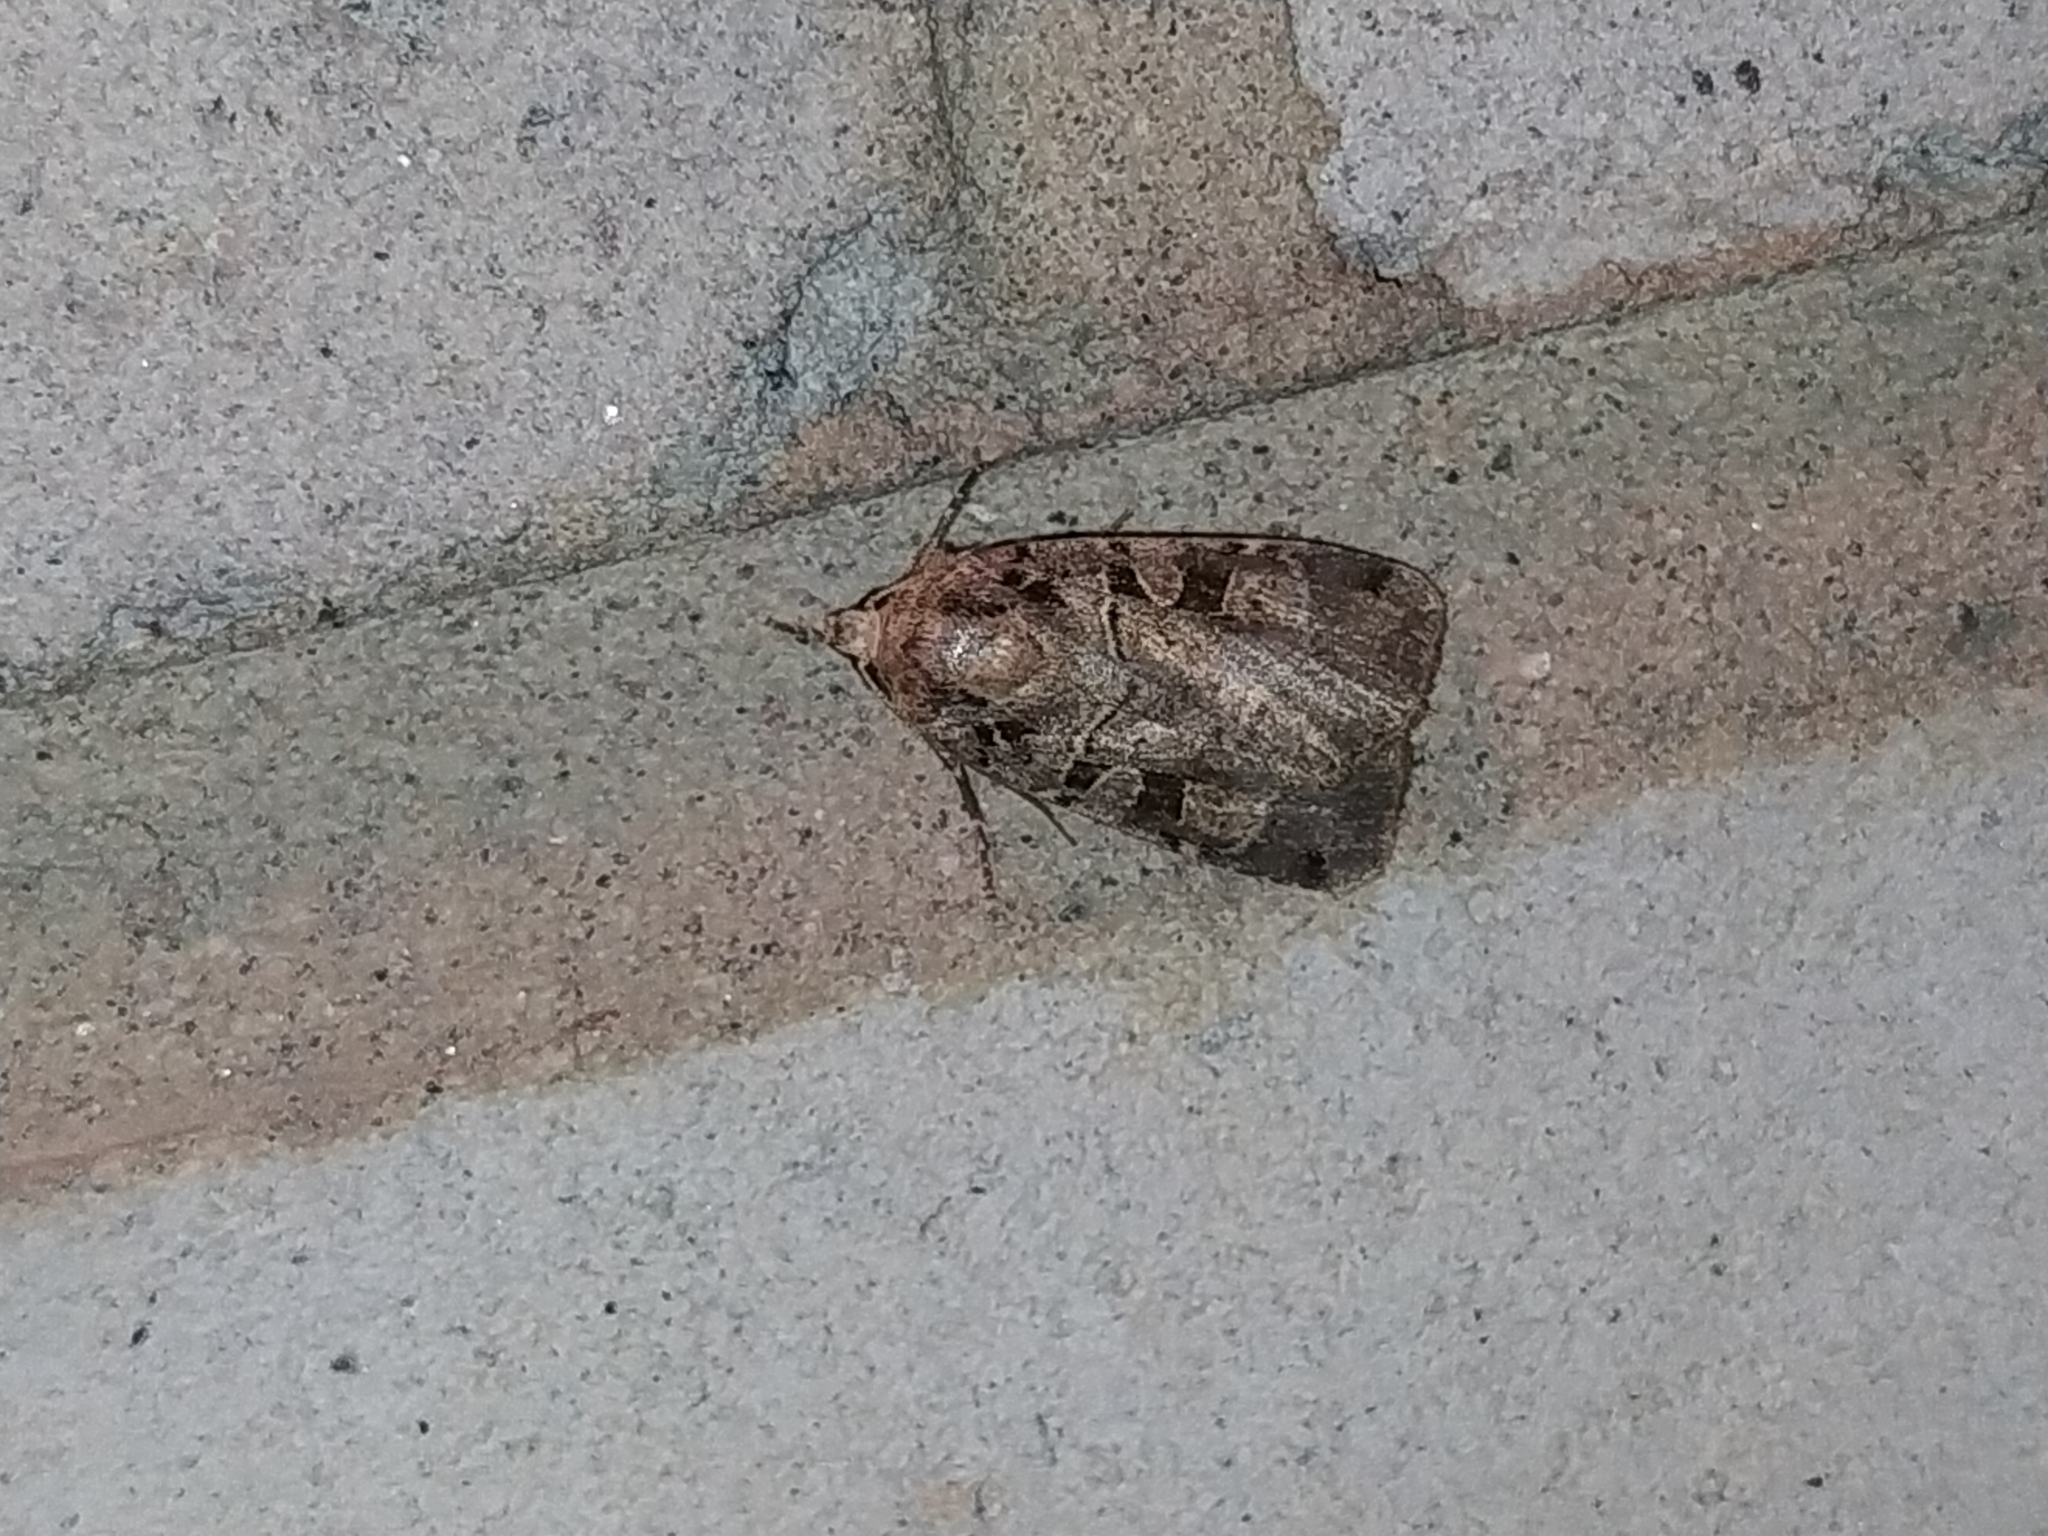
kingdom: Animalia
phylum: Arthropoda
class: Insecta
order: Lepidoptera
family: Noctuidae
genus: Xestia
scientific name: Xestia triangulum
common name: Double square-spot
